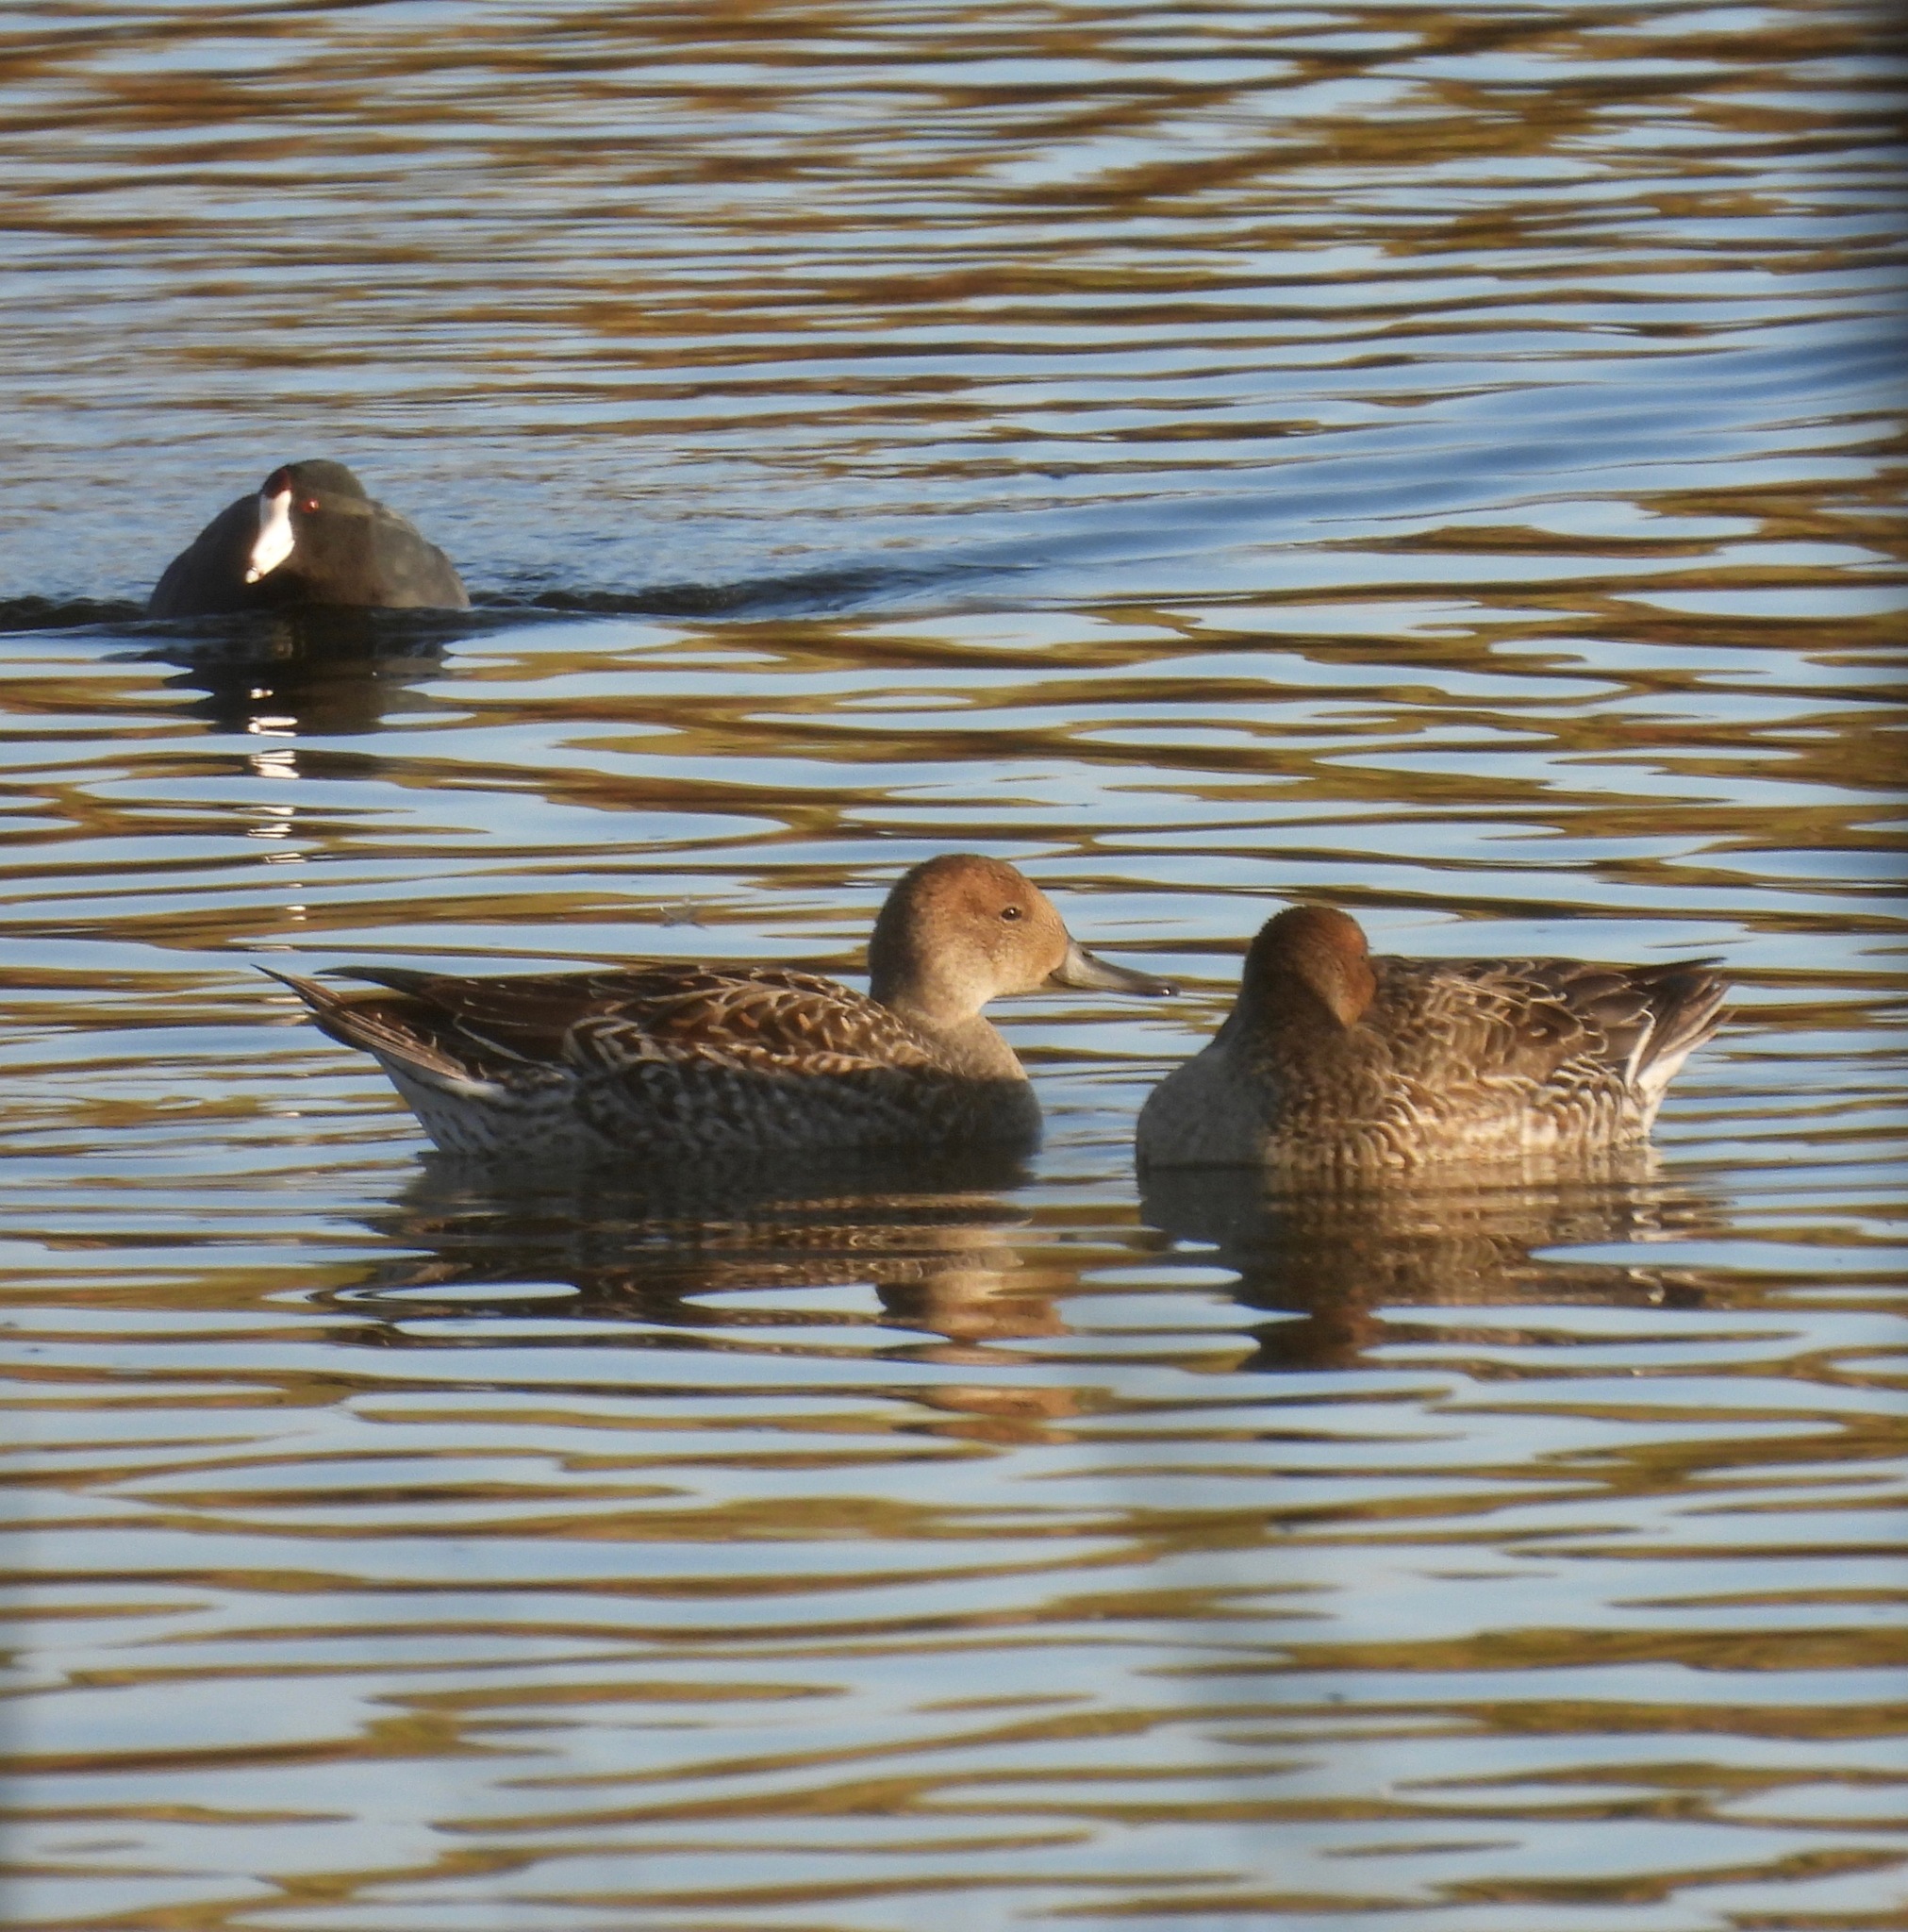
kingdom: Animalia
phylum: Chordata
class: Aves
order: Anseriformes
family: Anatidae
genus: Anas
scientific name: Anas acuta
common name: Northern pintail
